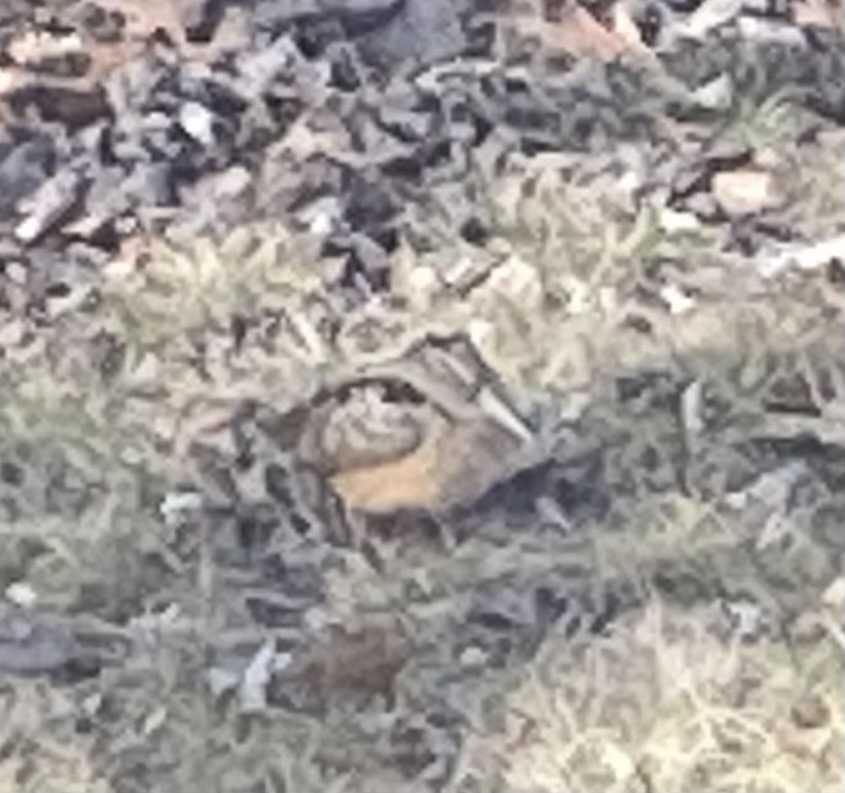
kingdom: Animalia
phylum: Chordata
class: Aves
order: Charadriiformes
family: Scolopacidae
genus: Scolopax
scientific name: Scolopax minor
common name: American woodcock
